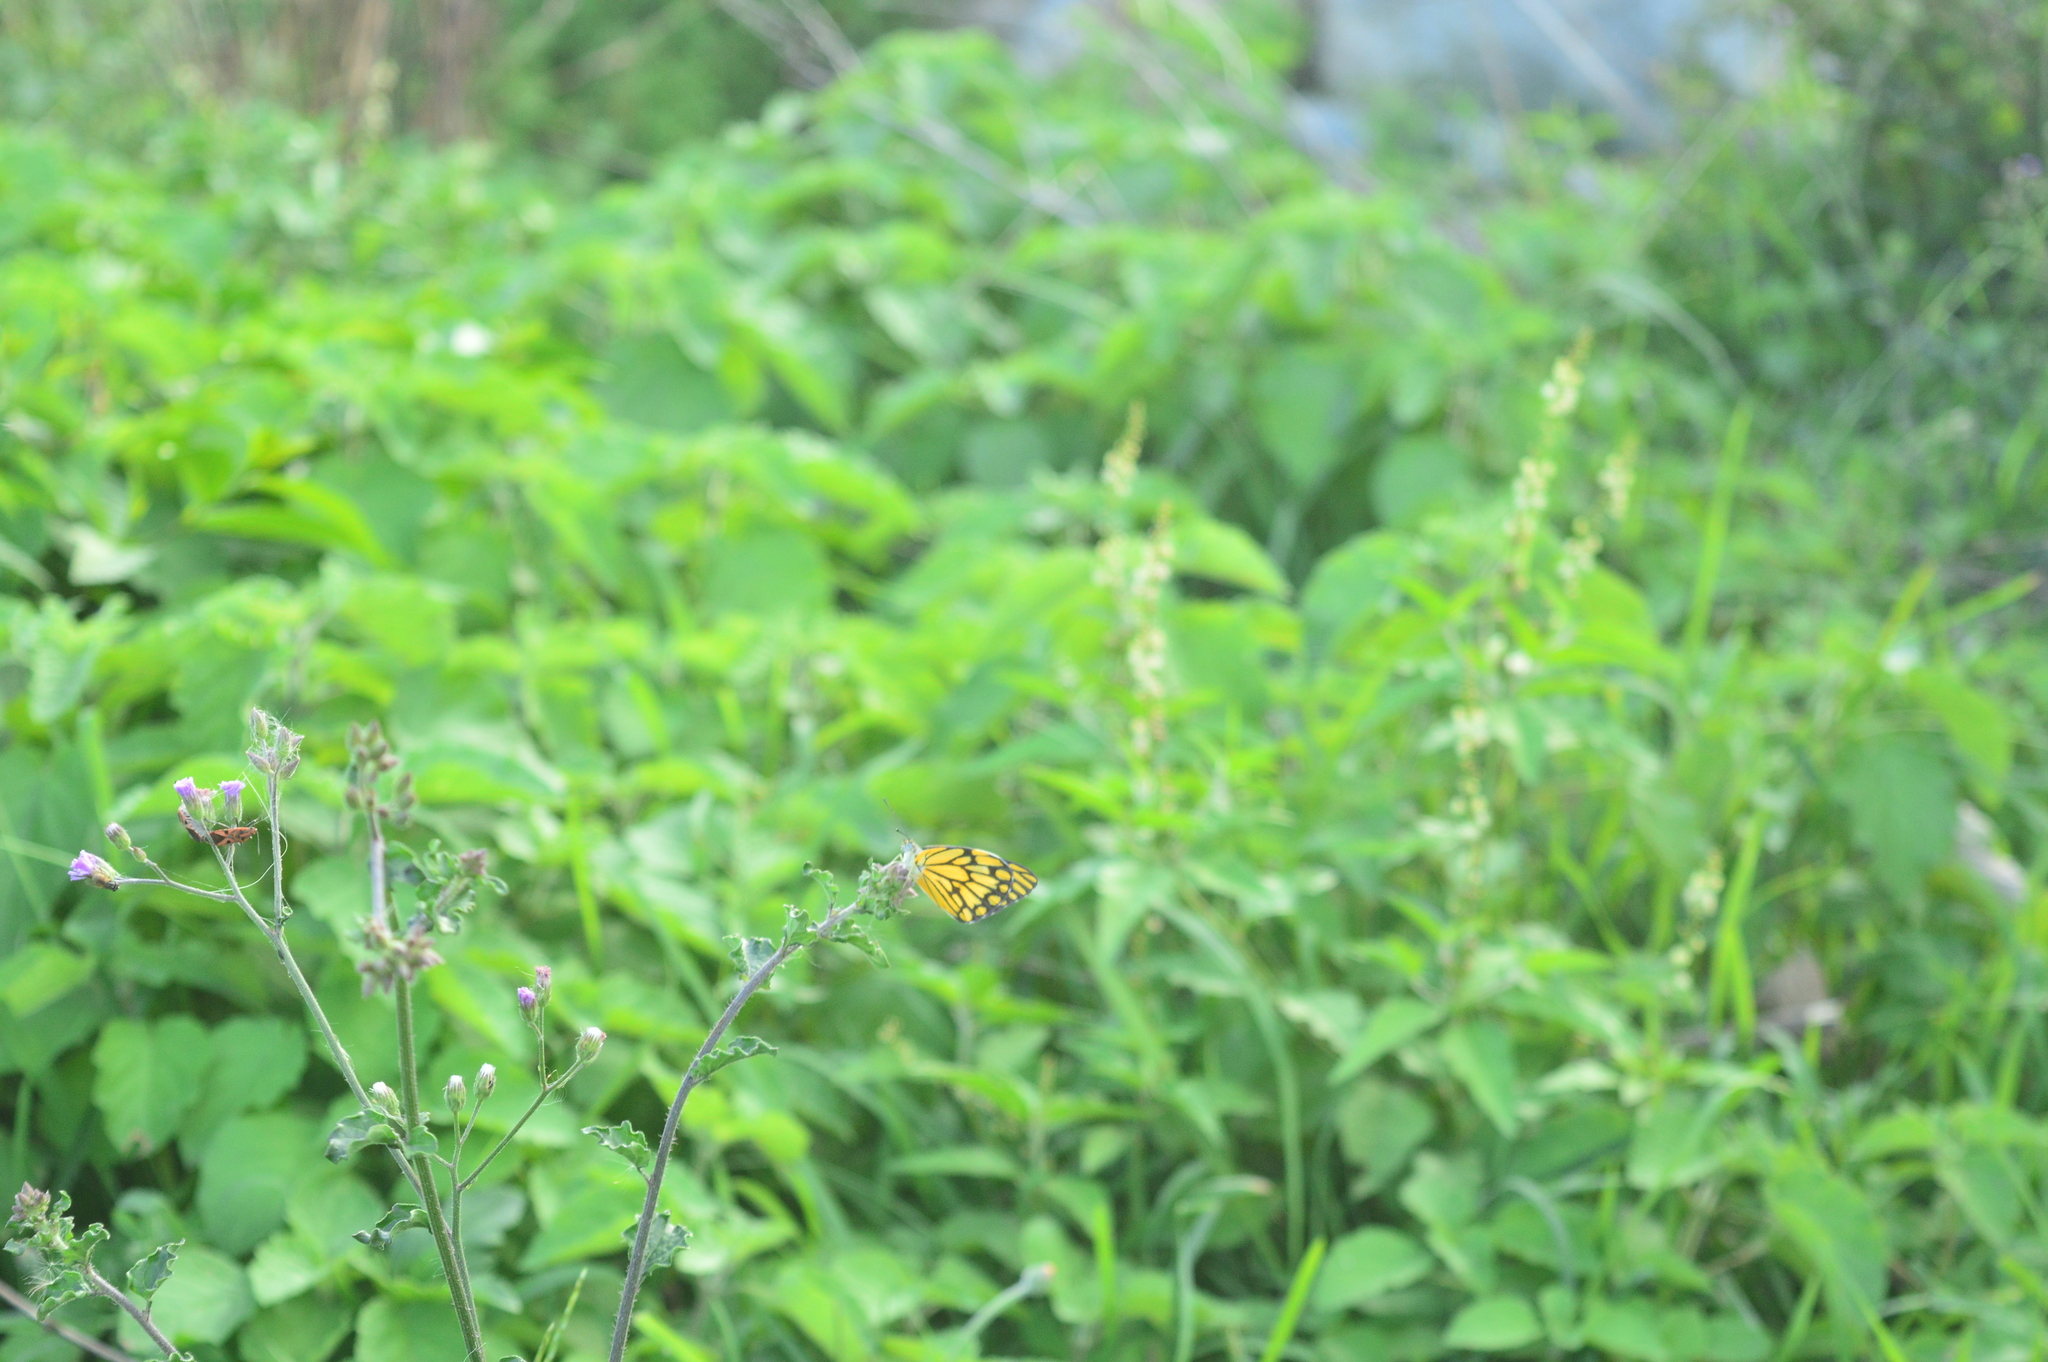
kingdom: Animalia
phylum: Arthropoda
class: Insecta
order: Lepidoptera
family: Pieridae
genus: Belenois
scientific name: Belenois aurota
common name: Brown-veined white
